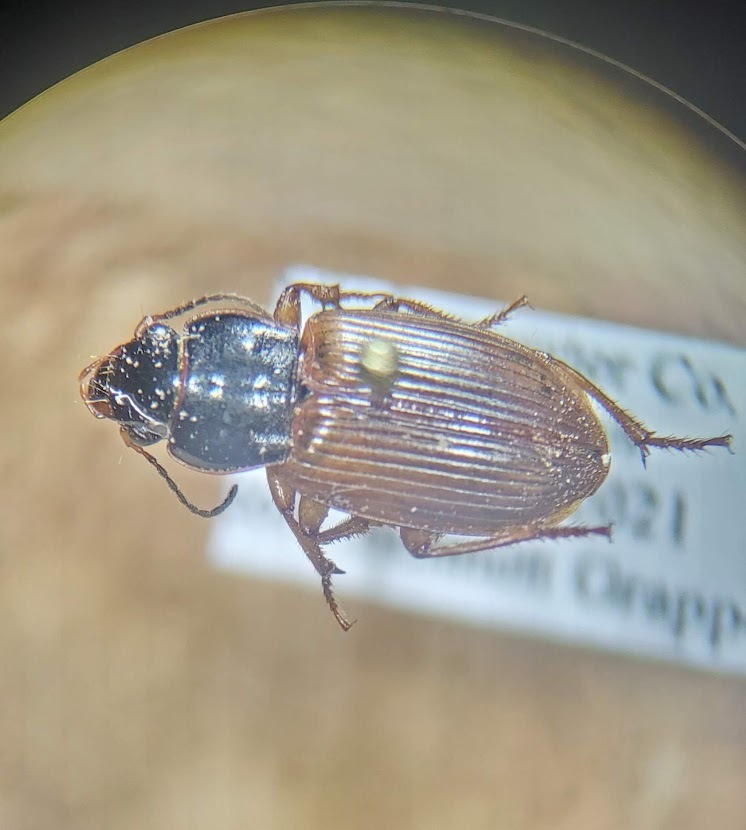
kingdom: Animalia
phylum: Arthropoda
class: Insecta
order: Coleoptera
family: Carabidae
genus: Anisodactylus
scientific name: Anisodactylus sanctaecrucis
